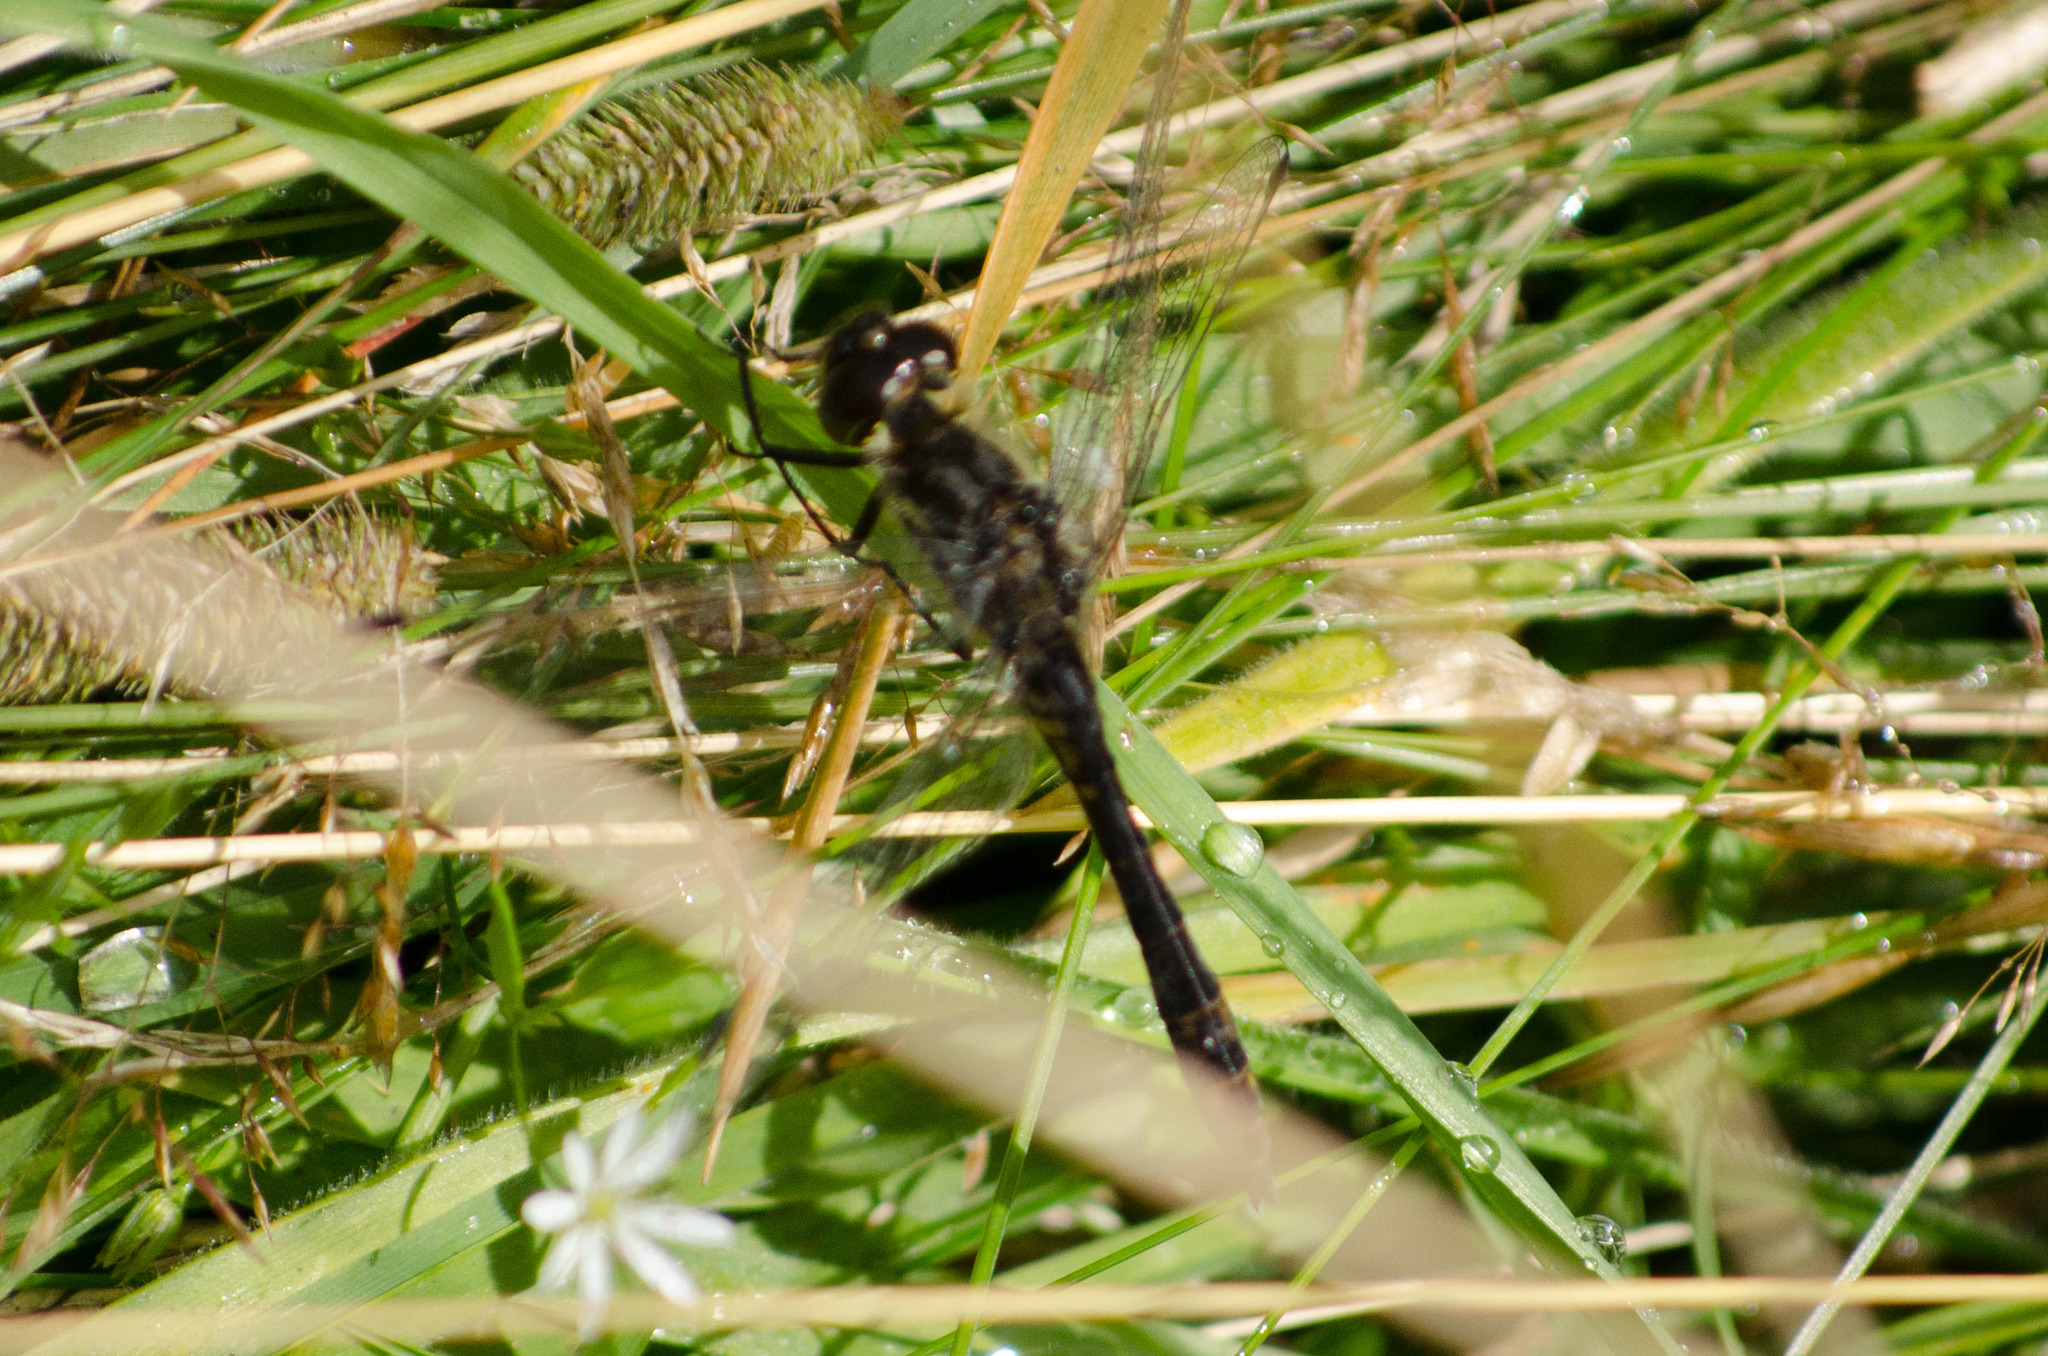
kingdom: Animalia
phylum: Arthropoda
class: Insecta
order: Odonata
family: Libellulidae
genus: Sympetrum
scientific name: Sympetrum danae
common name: Black darter
